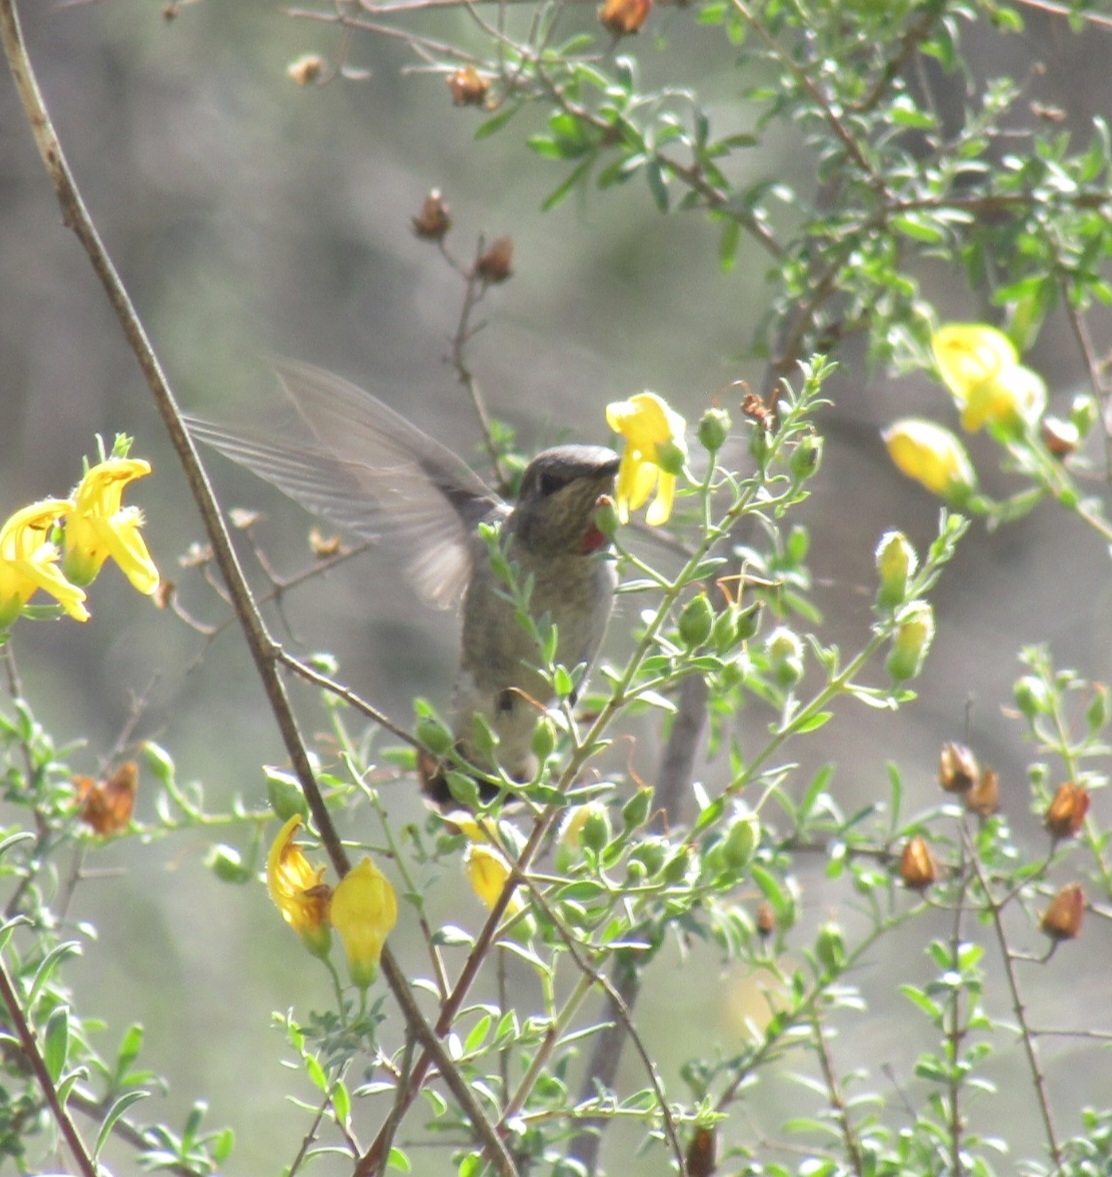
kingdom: Animalia
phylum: Chordata
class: Aves
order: Apodiformes
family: Trochilidae
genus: Calypte
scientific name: Calypte anna
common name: Anna's hummingbird
